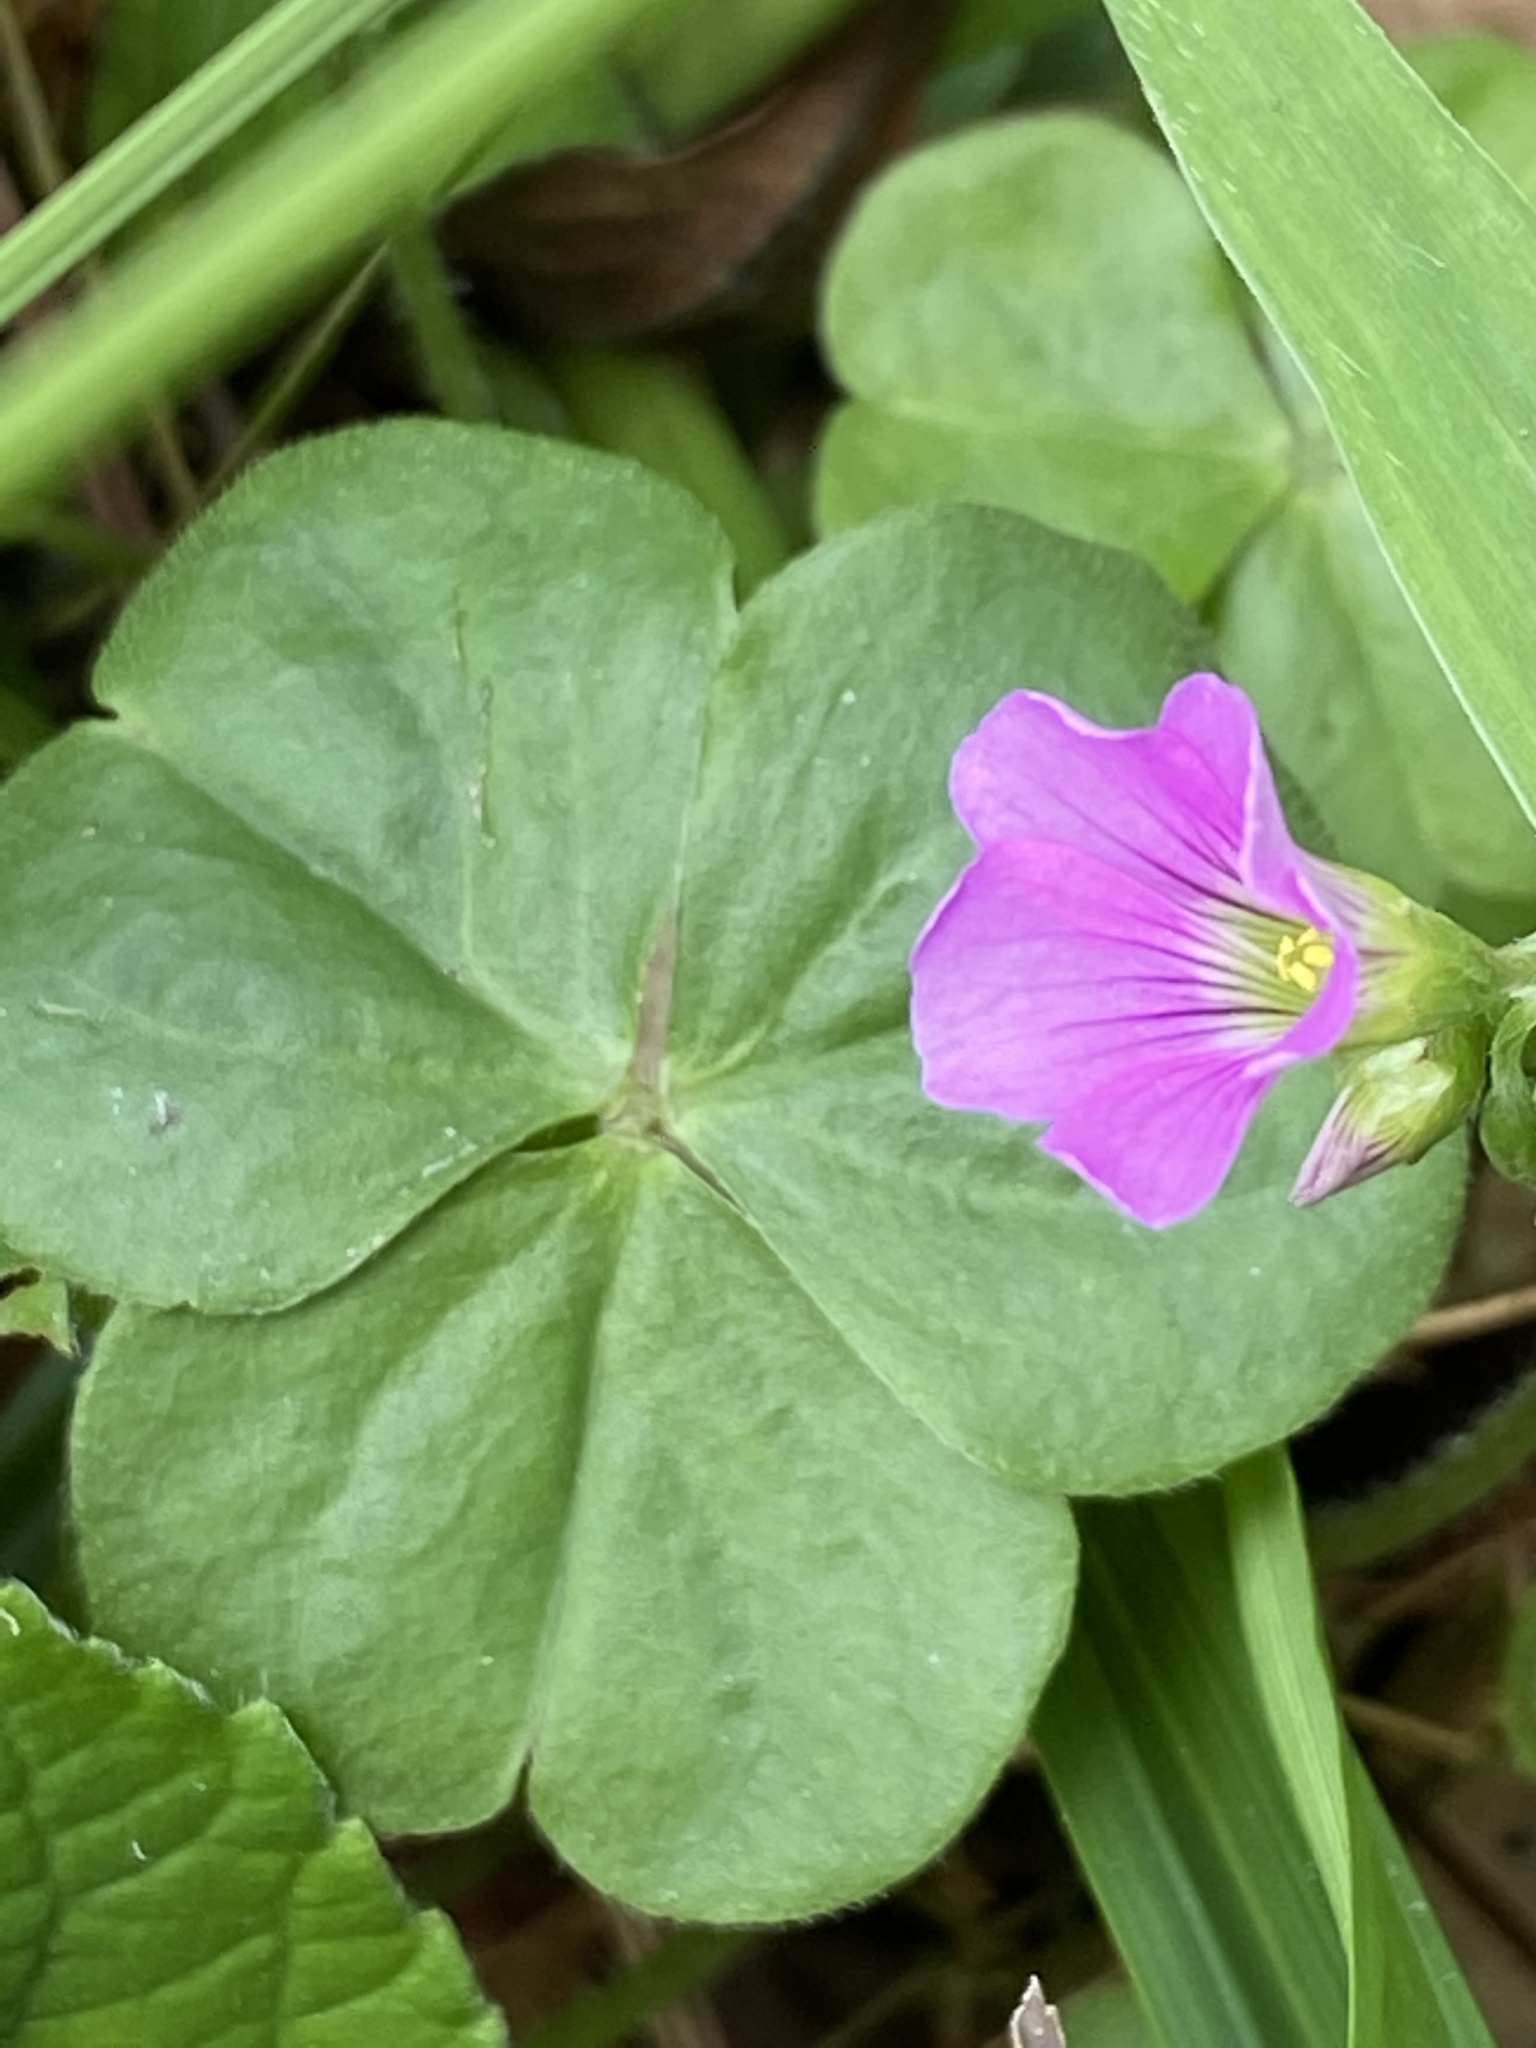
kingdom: Plantae
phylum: Tracheophyta
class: Magnoliopsida
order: Oxalidales
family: Oxalidaceae
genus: Oxalis
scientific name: Oxalis debilis
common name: Large-flowered pink-sorrel
